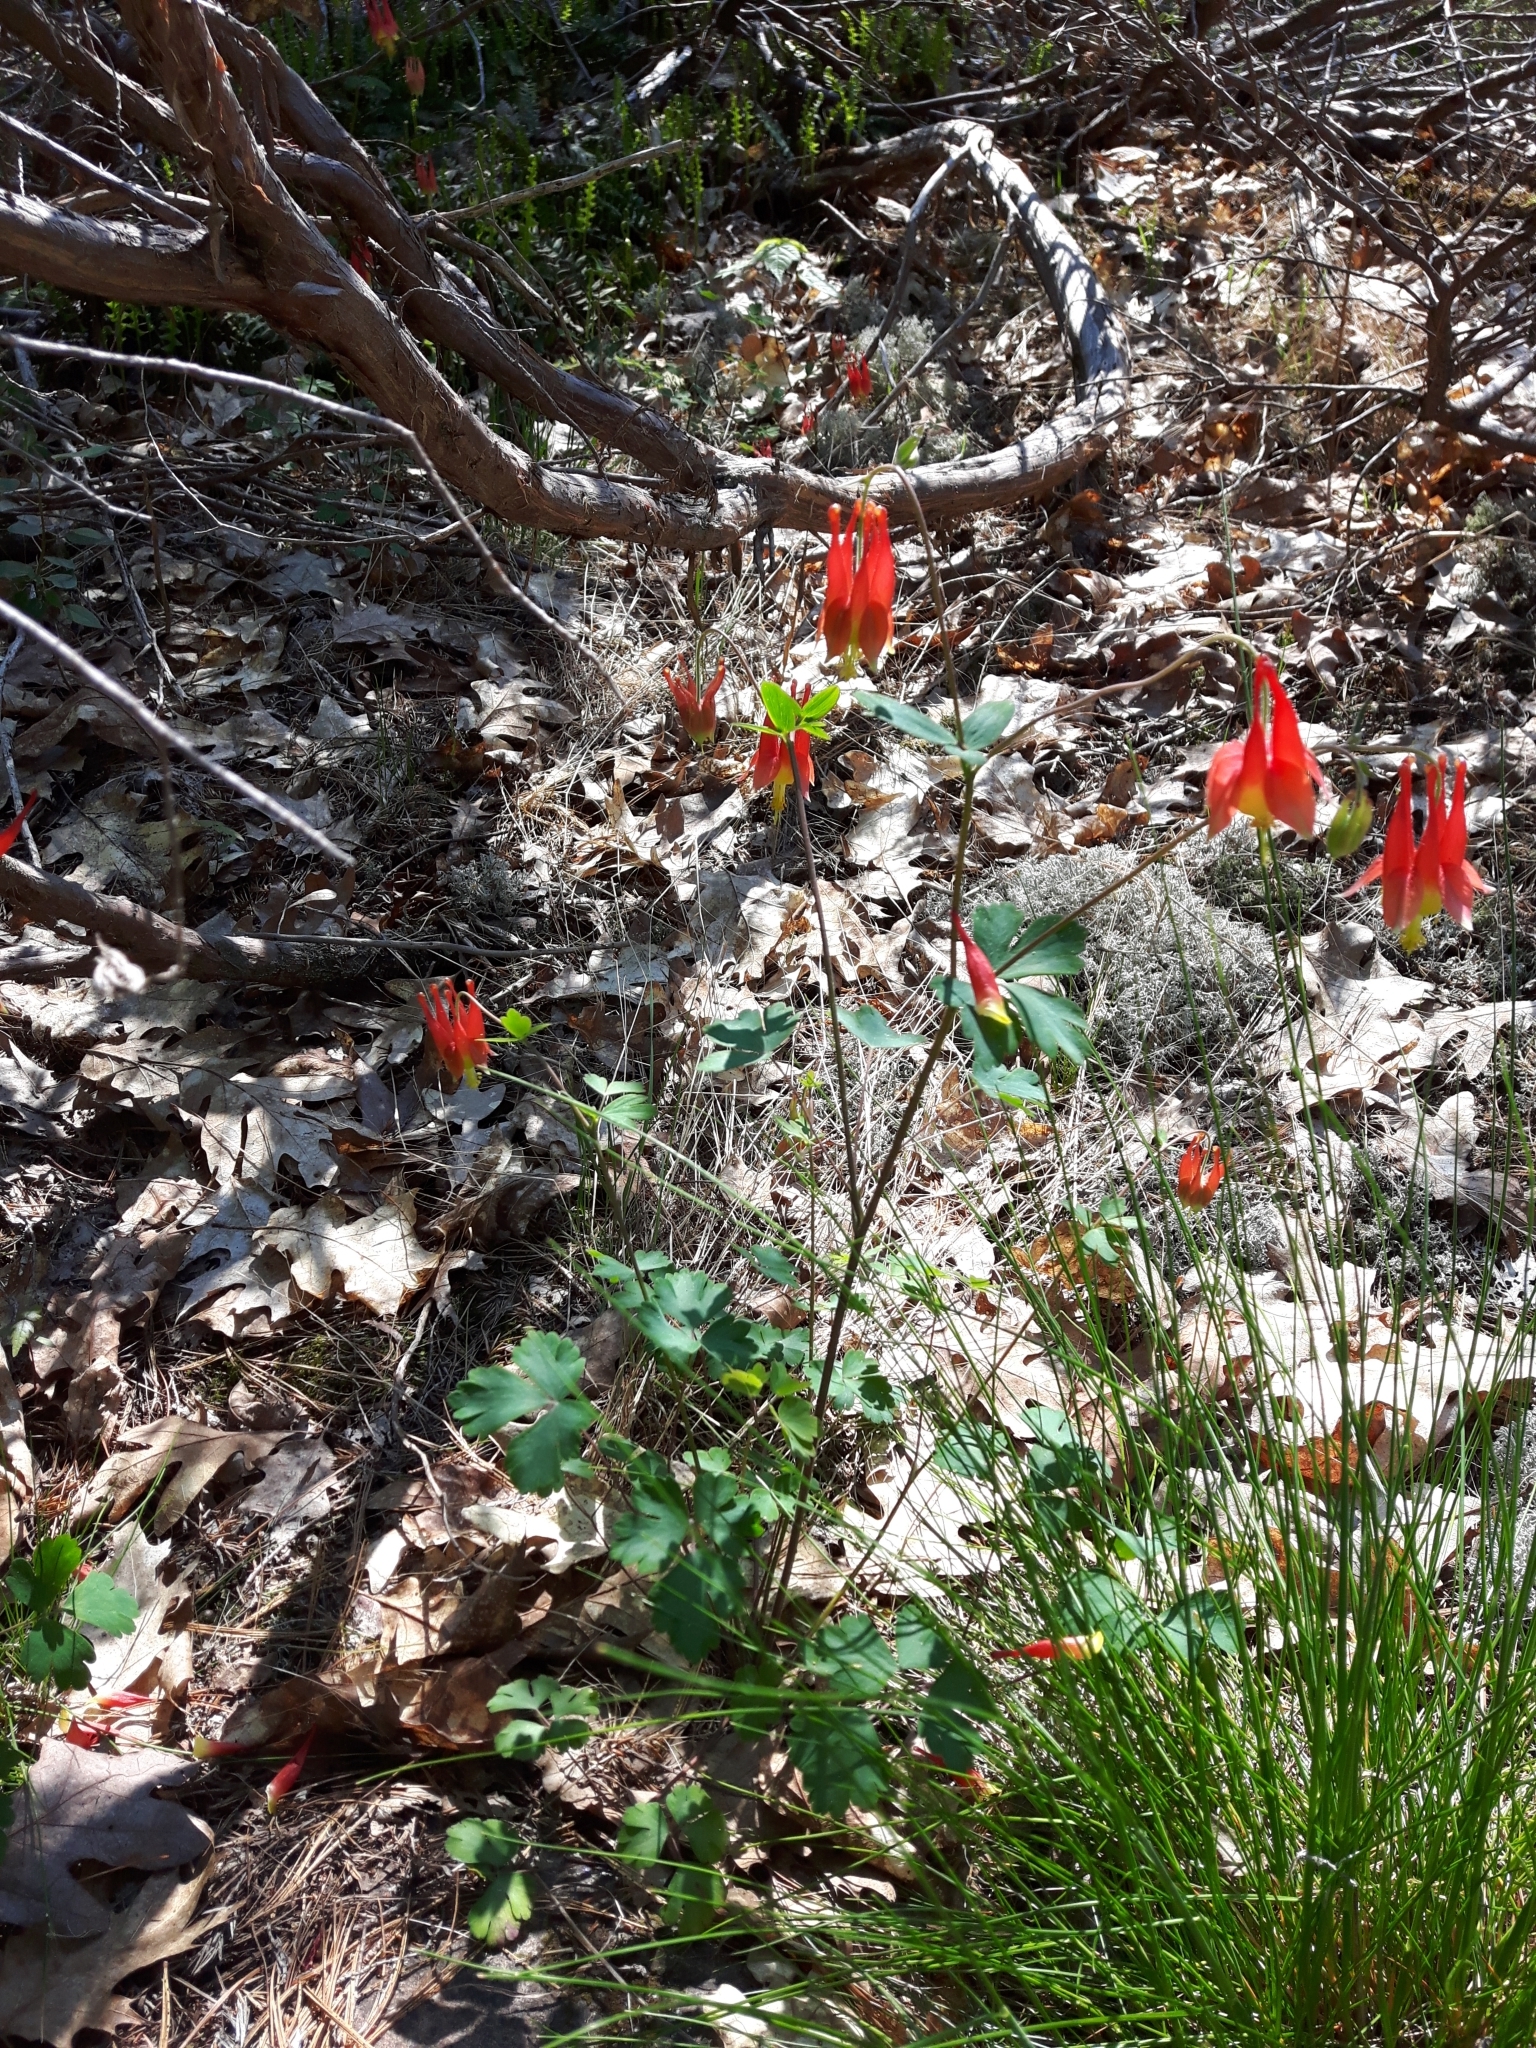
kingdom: Plantae
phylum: Tracheophyta
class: Magnoliopsida
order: Ranunculales
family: Ranunculaceae
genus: Aquilegia
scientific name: Aquilegia canadensis
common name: American columbine
